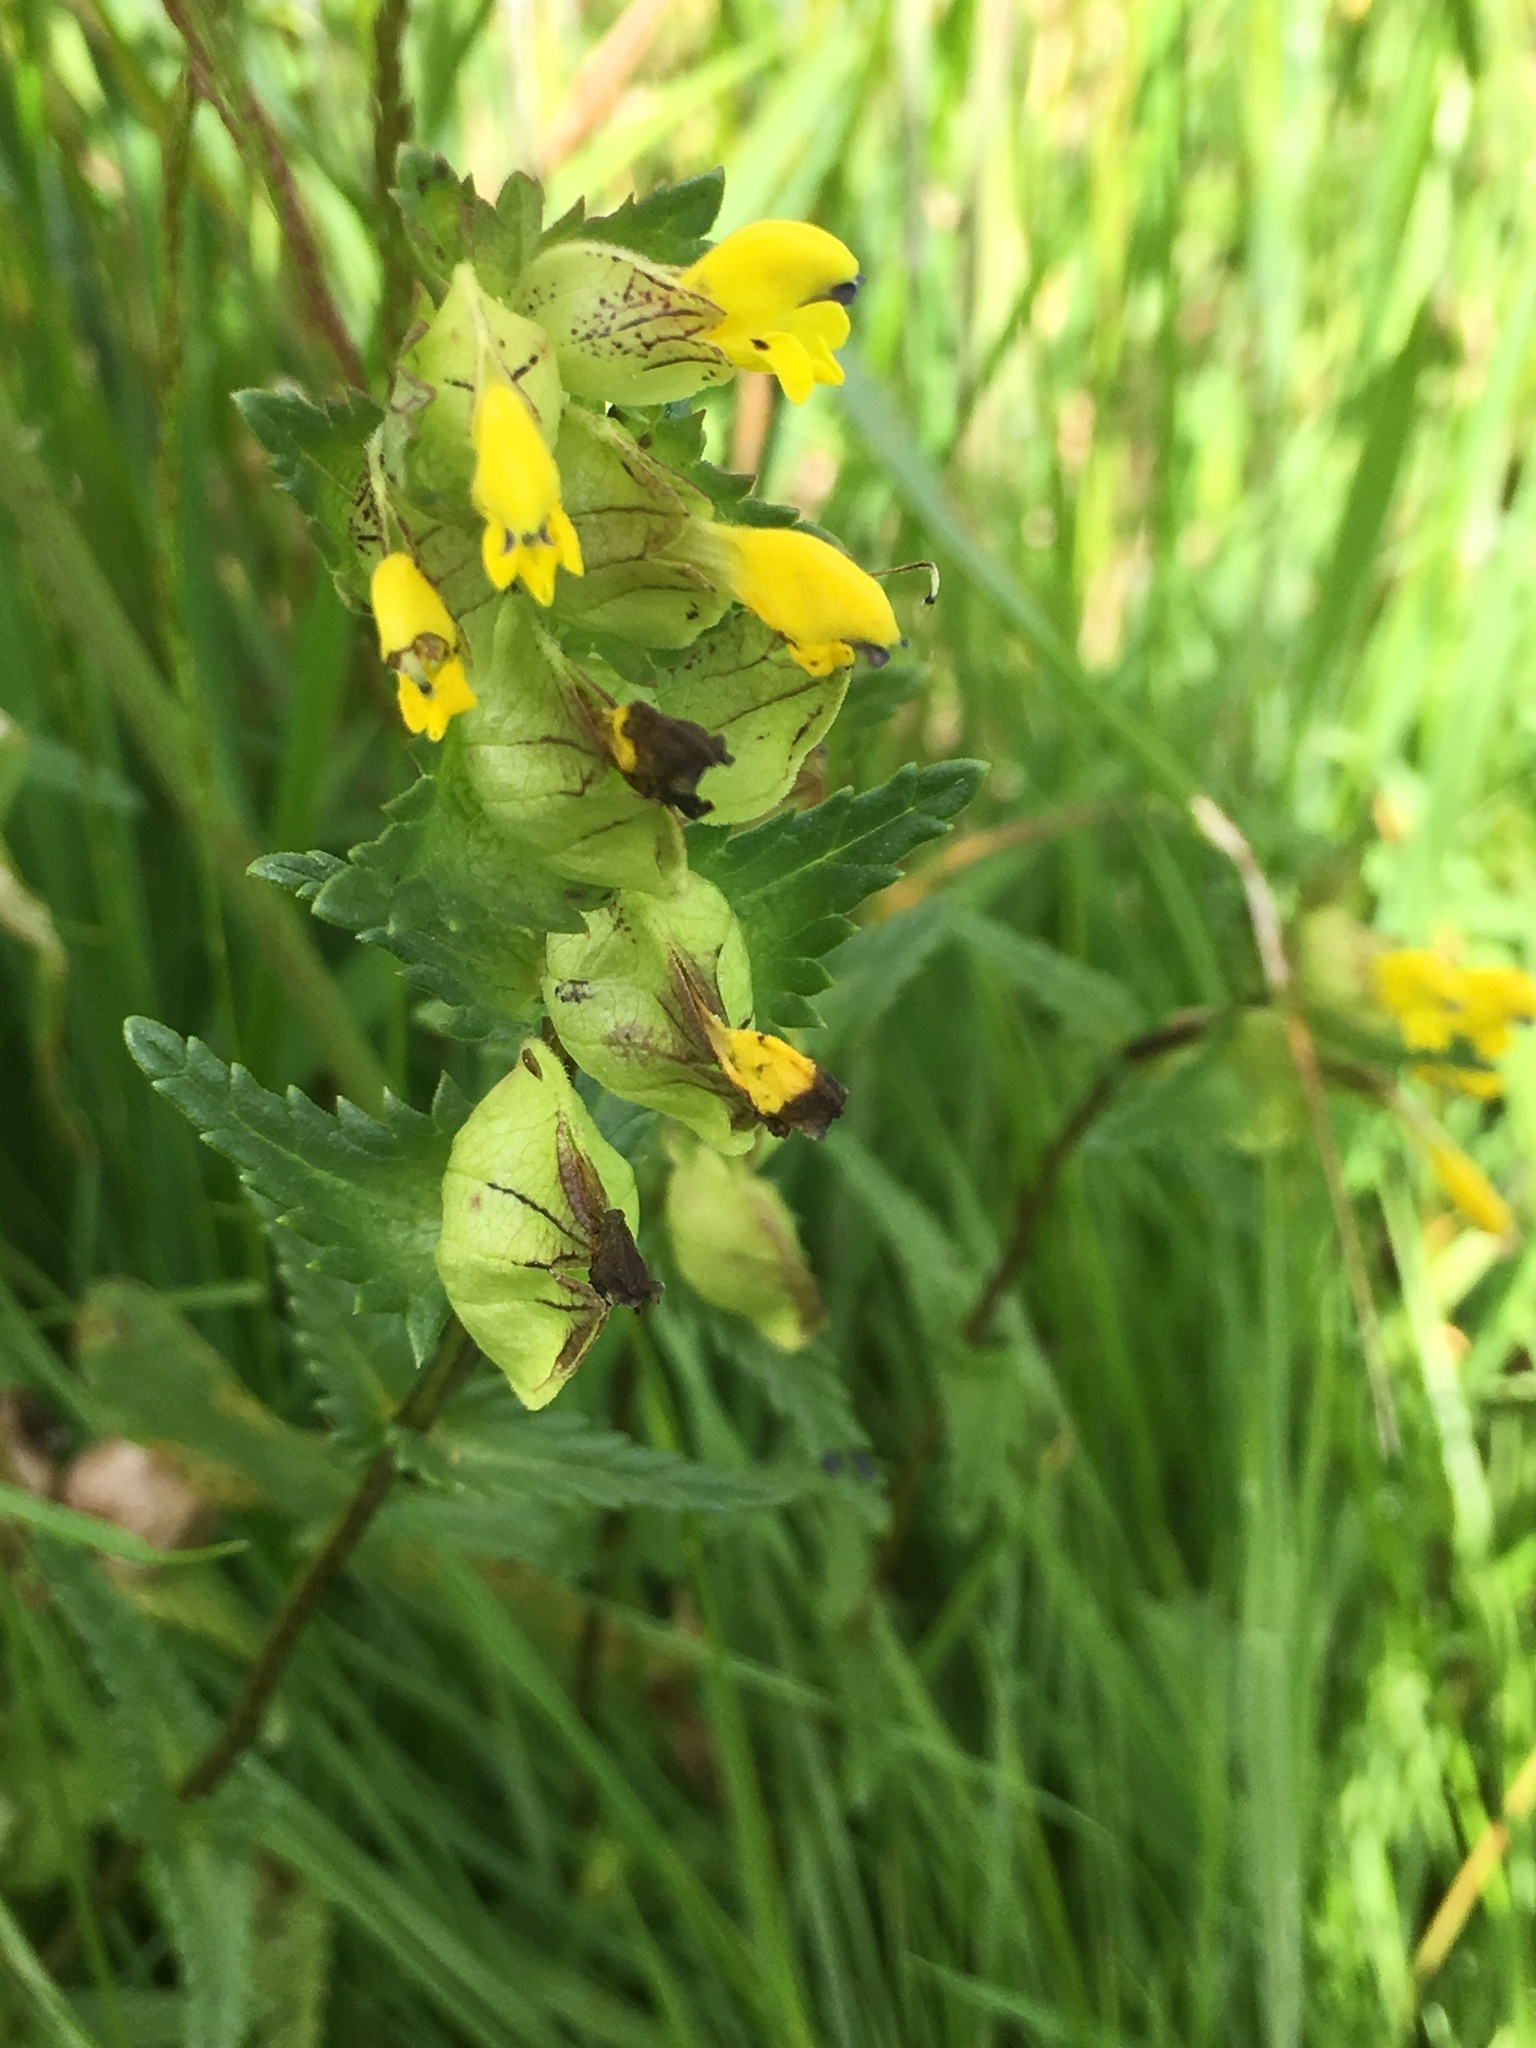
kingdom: Plantae
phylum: Tracheophyta
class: Magnoliopsida
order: Lamiales
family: Orobanchaceae
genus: Rhinanthus
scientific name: Rhinanthus minor
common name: Yellow-rattle
